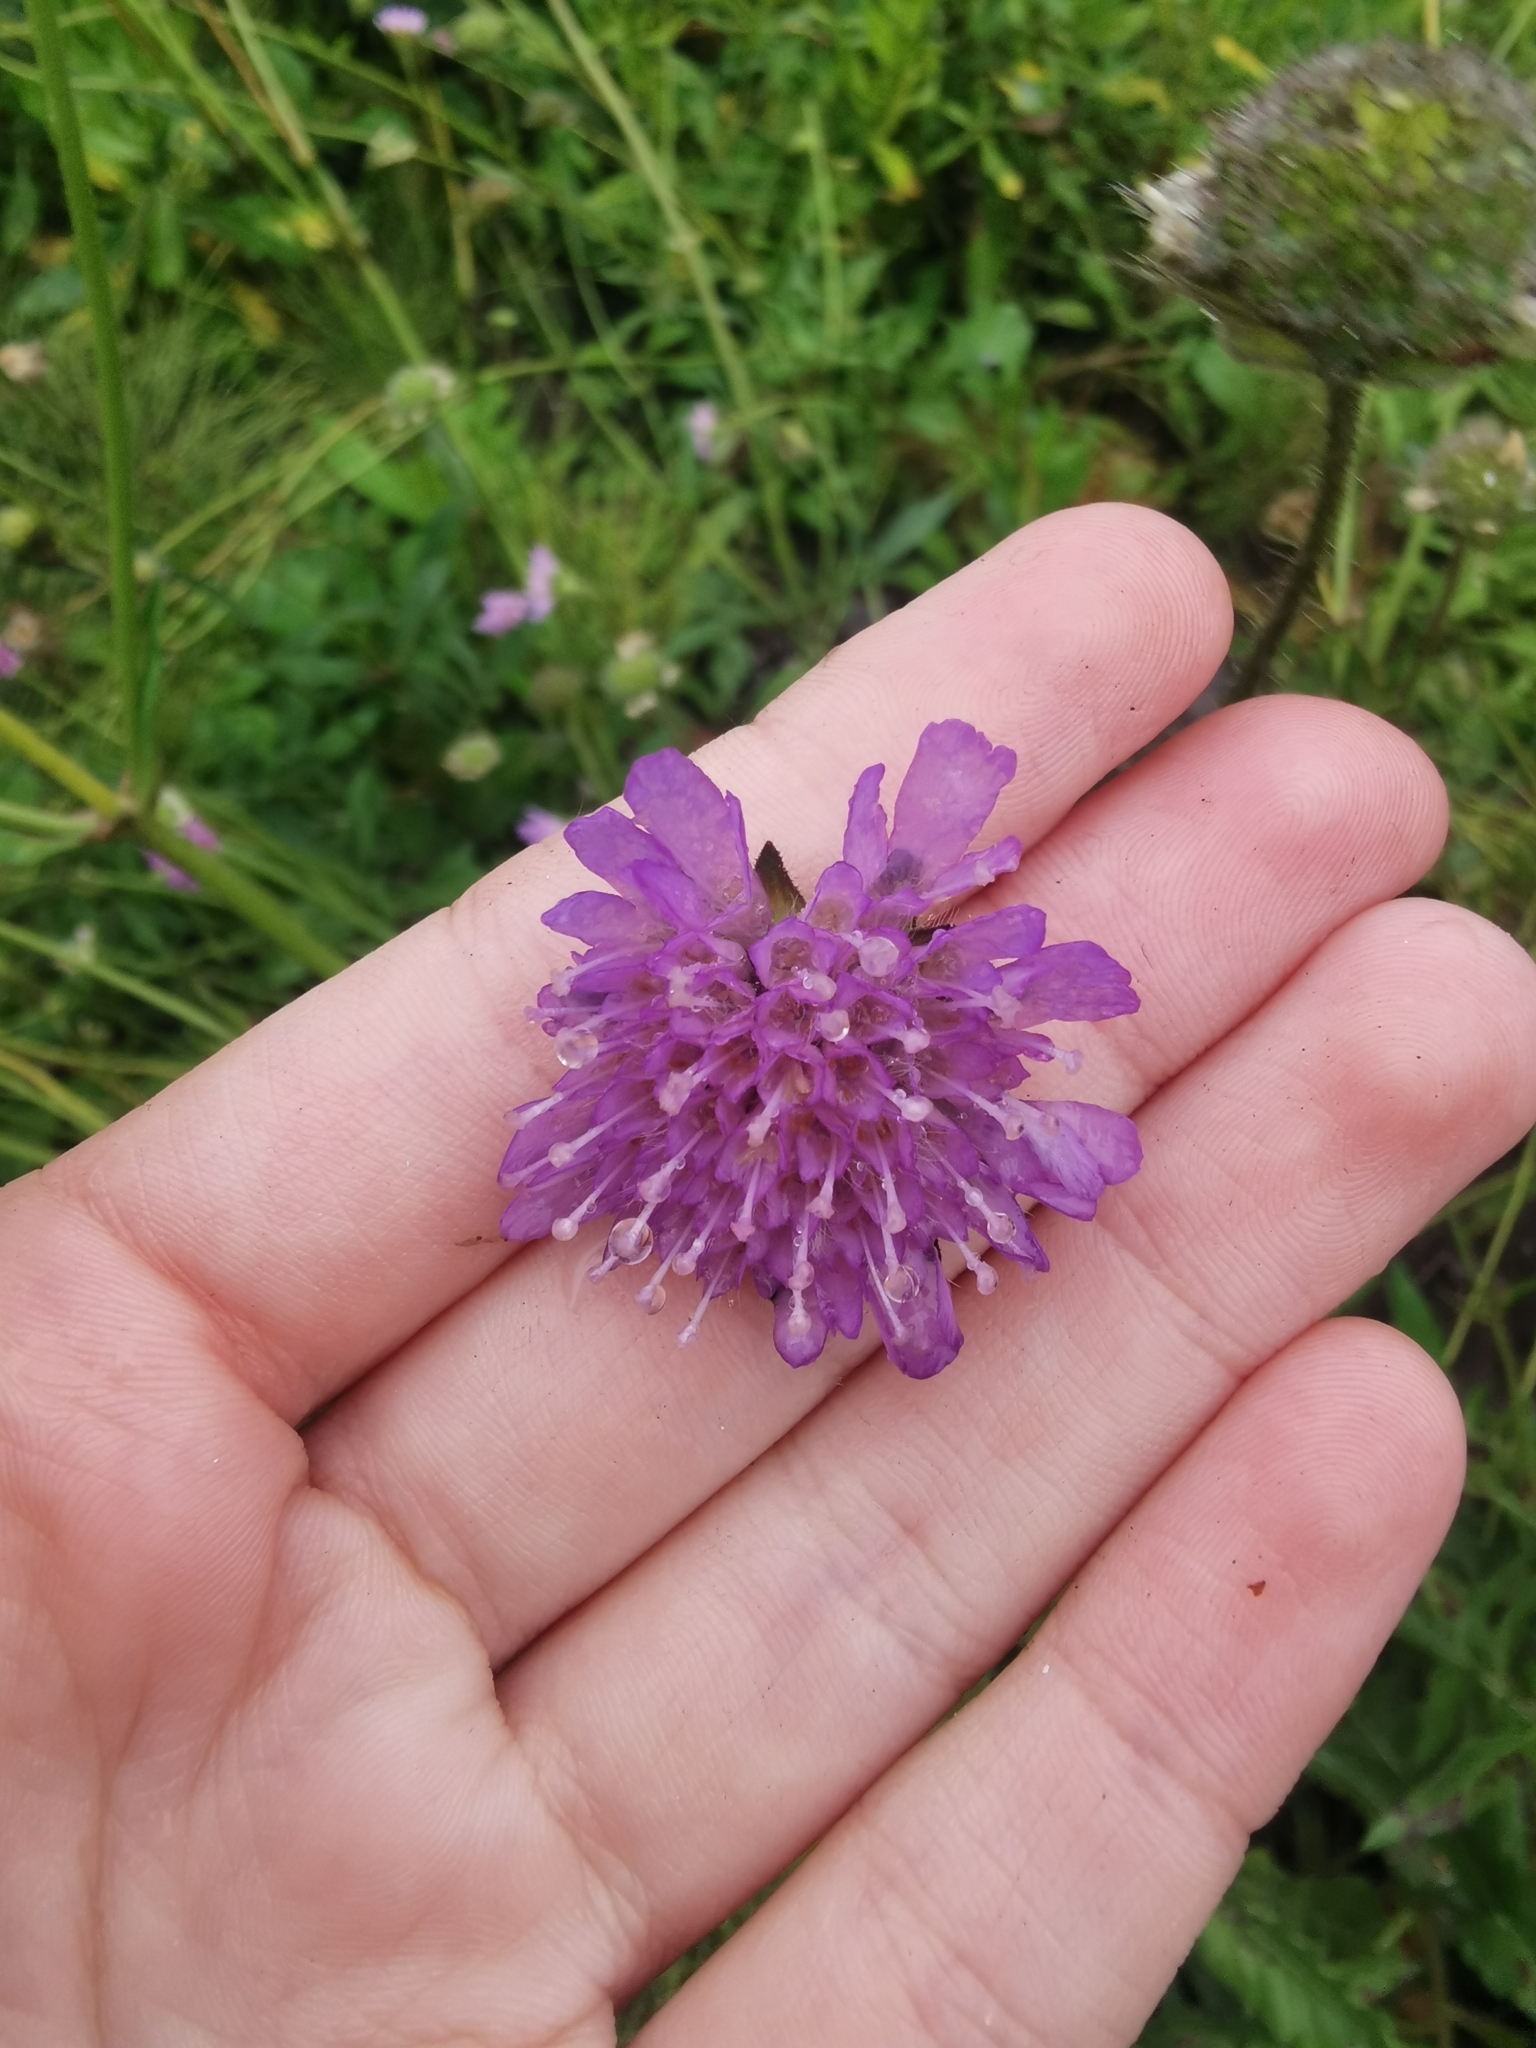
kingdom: Plantae
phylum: Tracheophyta
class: Magnoliopsida
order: Dipsacales
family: Caprifoliaceae
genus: Knautia
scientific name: Knautia arvensis
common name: Field scabiosa
